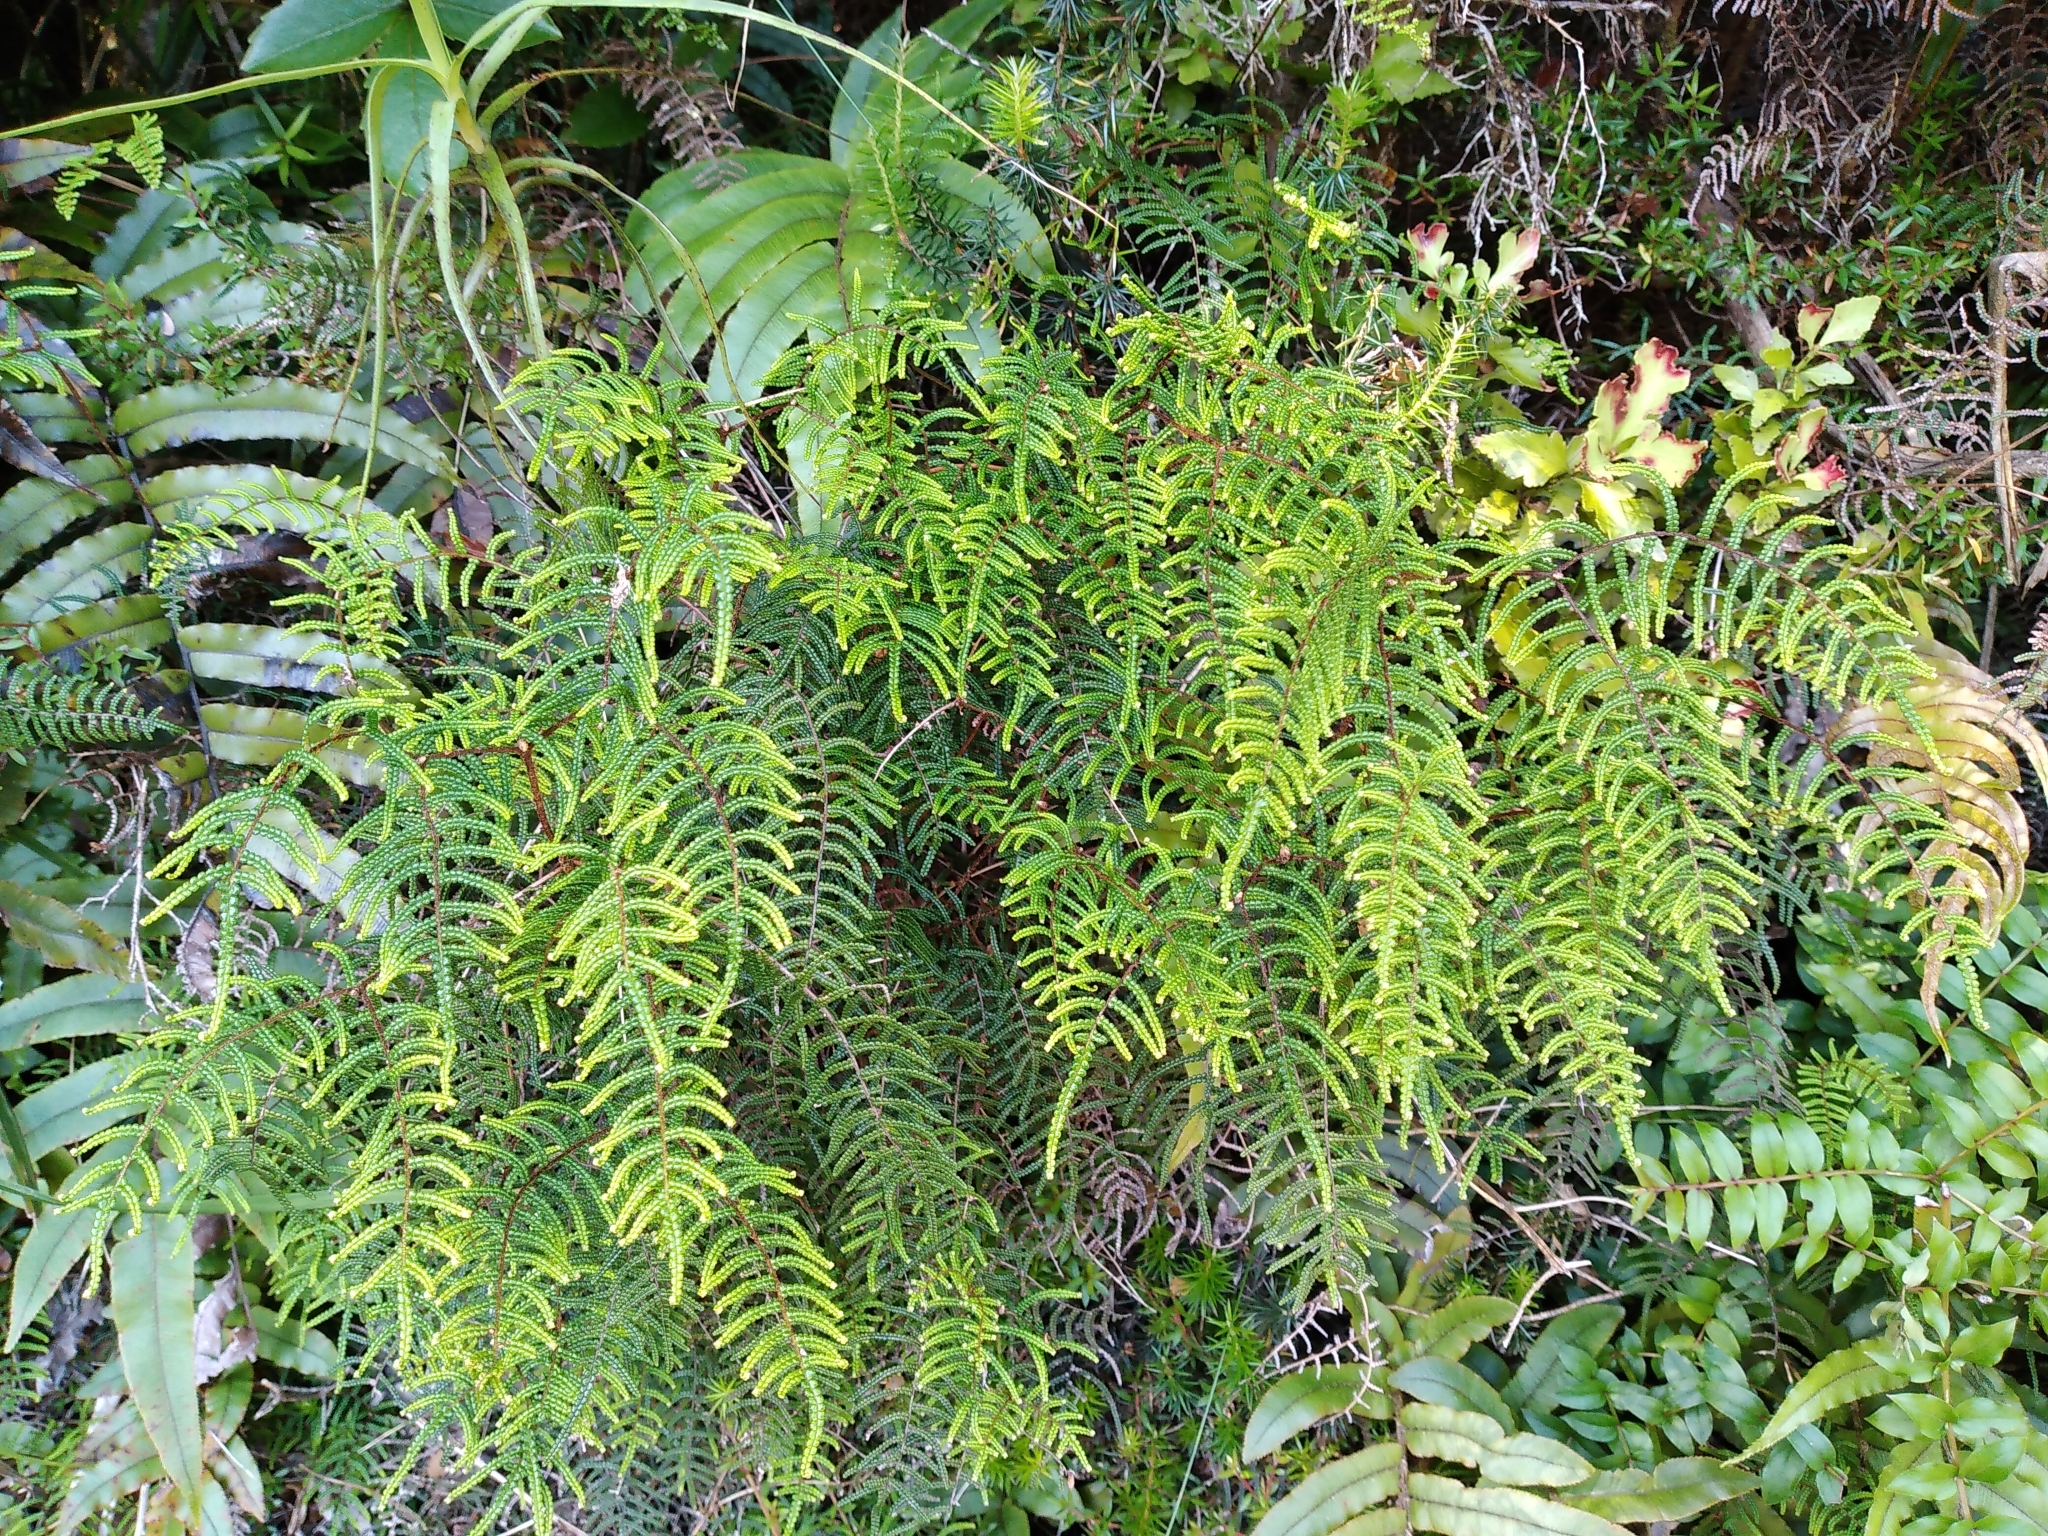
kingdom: Plantae
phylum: Tracheophyta
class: Polypodiopsida
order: Gleicheniales
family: Gleicheniaceae
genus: Gleichenia
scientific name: Gleichenia dicarpa
